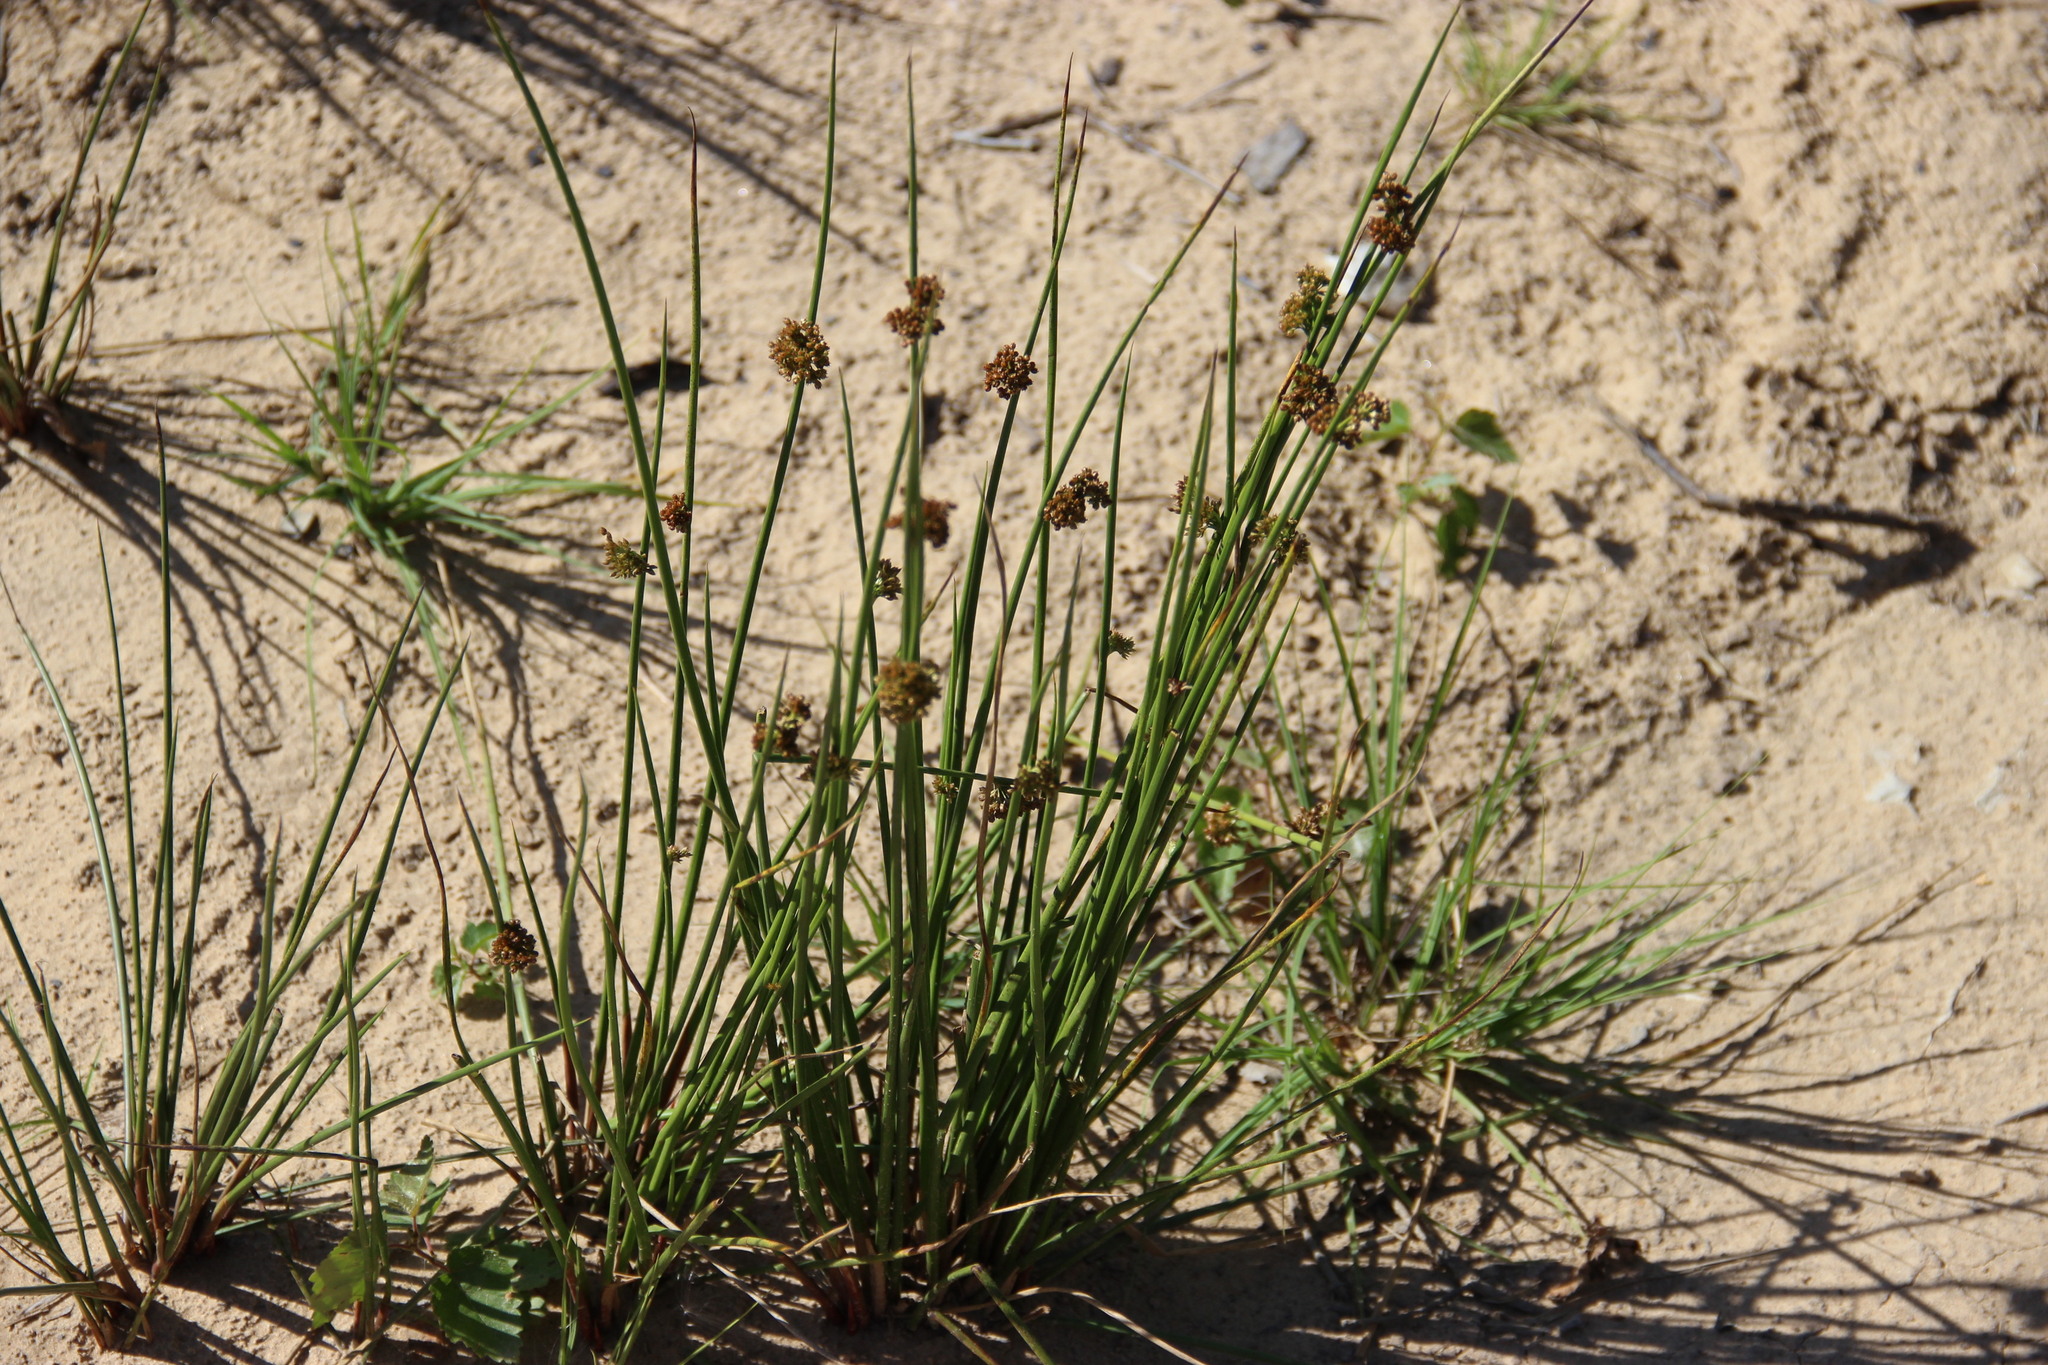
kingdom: Plantae
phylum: Tracheophyta
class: Liliopsida
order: Poales
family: Juncaceae
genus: Juncus
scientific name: Juncus effusus
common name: Soft rush
